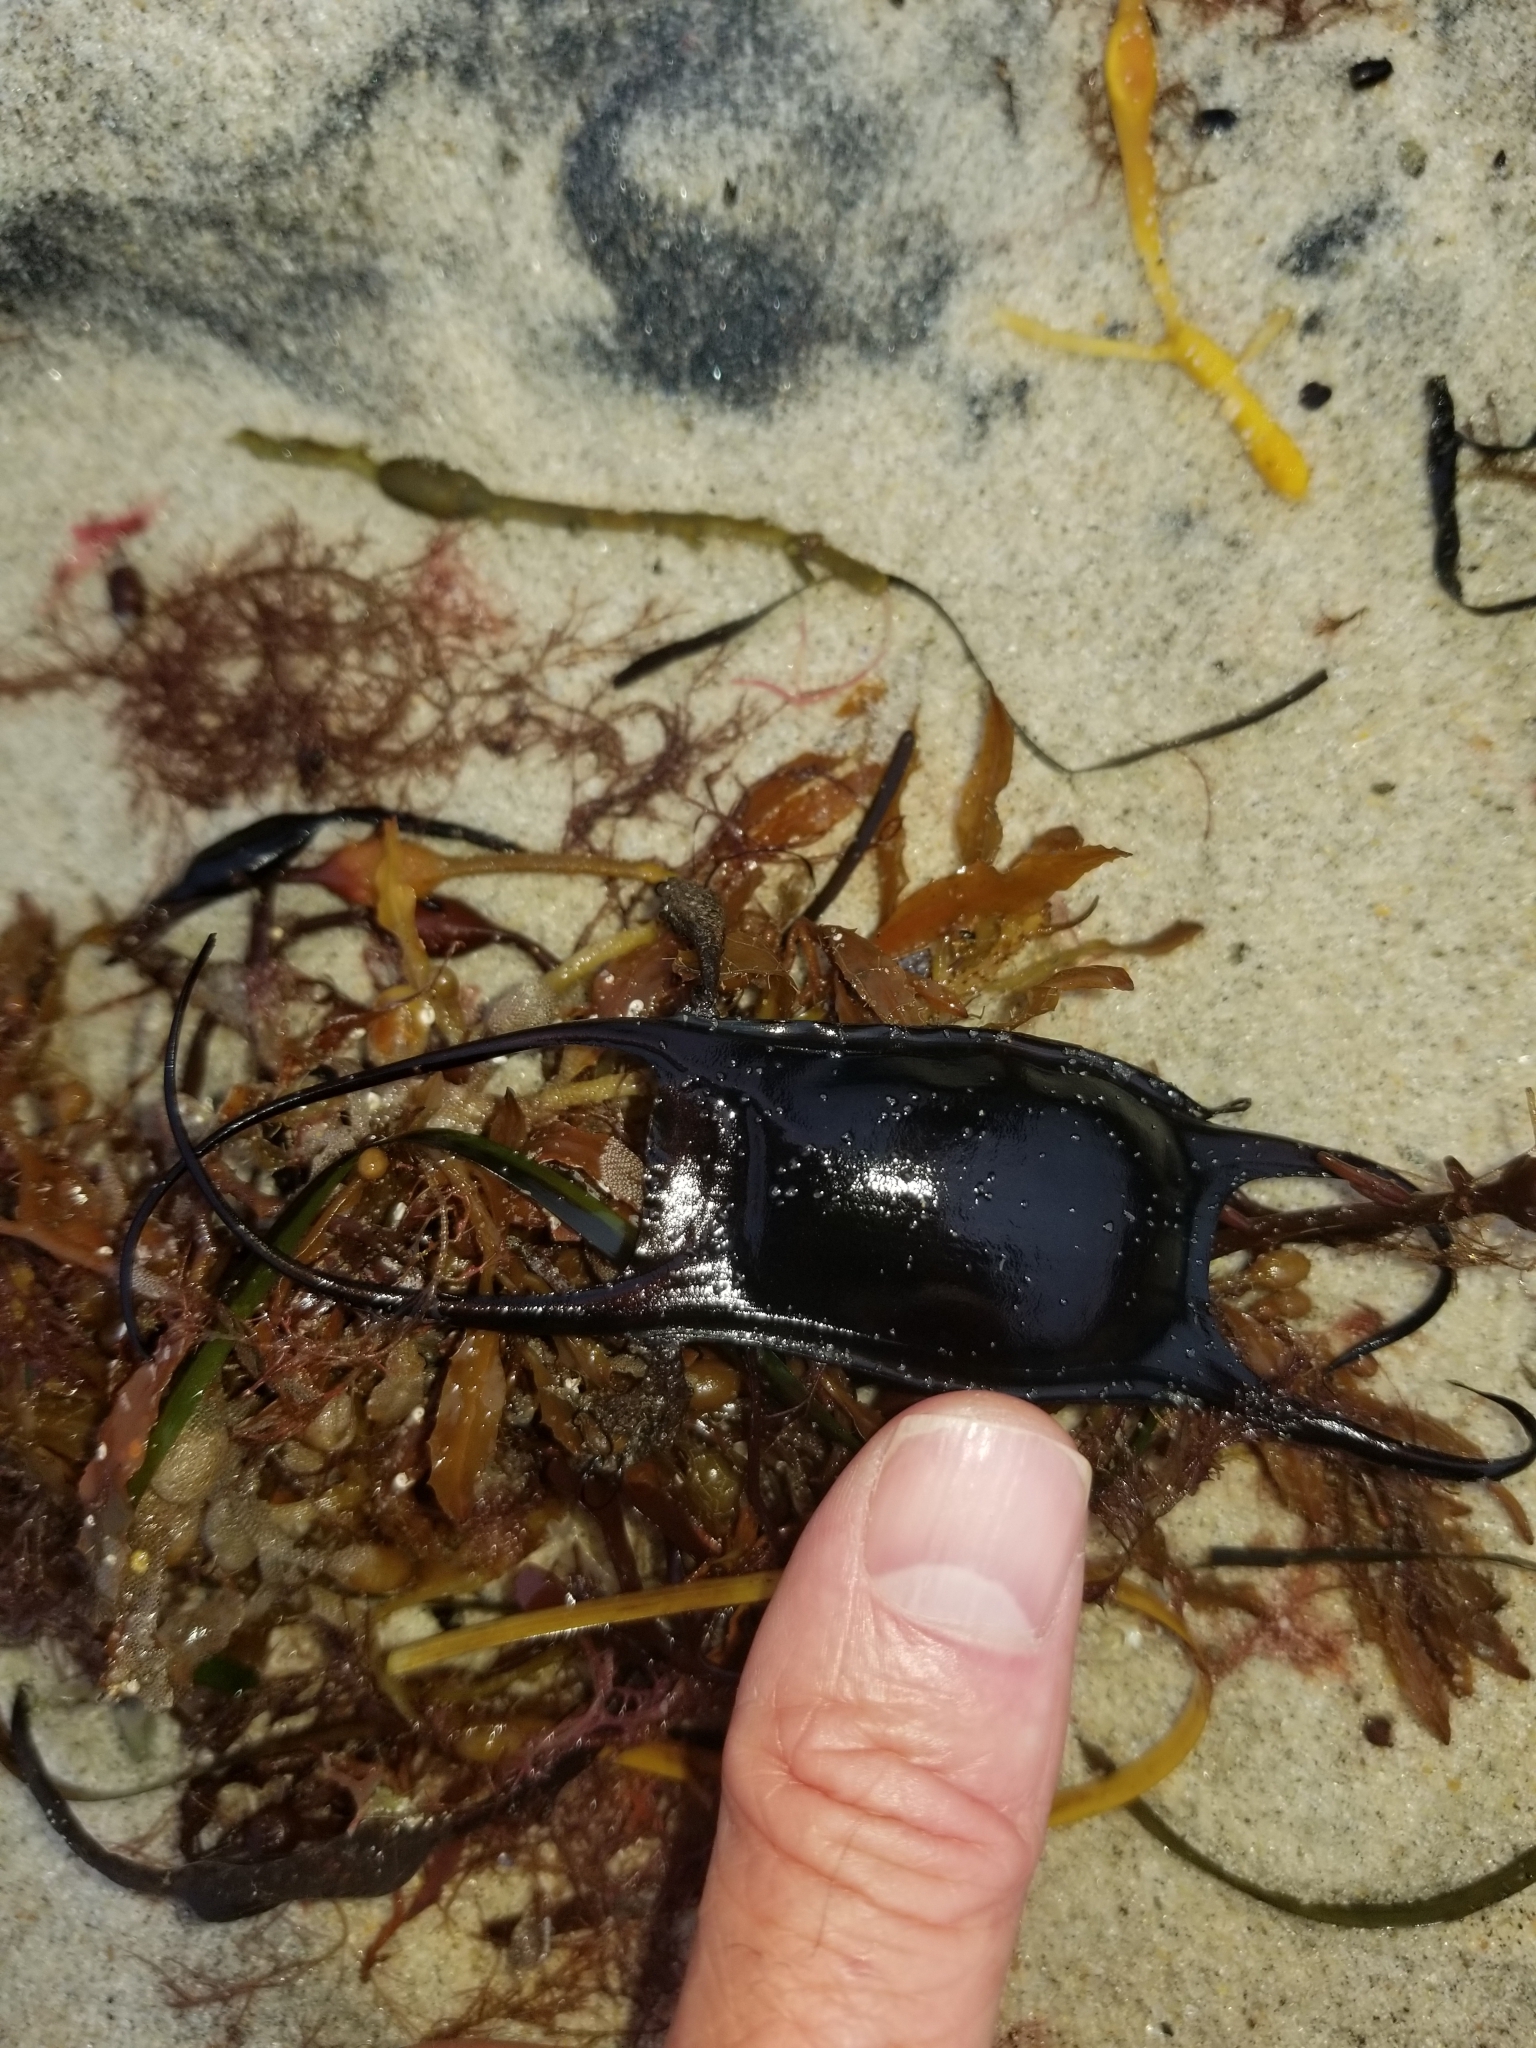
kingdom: Animalia
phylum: Chordata
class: Elasmobranchii
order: Rajiformes
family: Rajidae
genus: Leucoraja
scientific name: Leucoraja garmani
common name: Rosette skate
